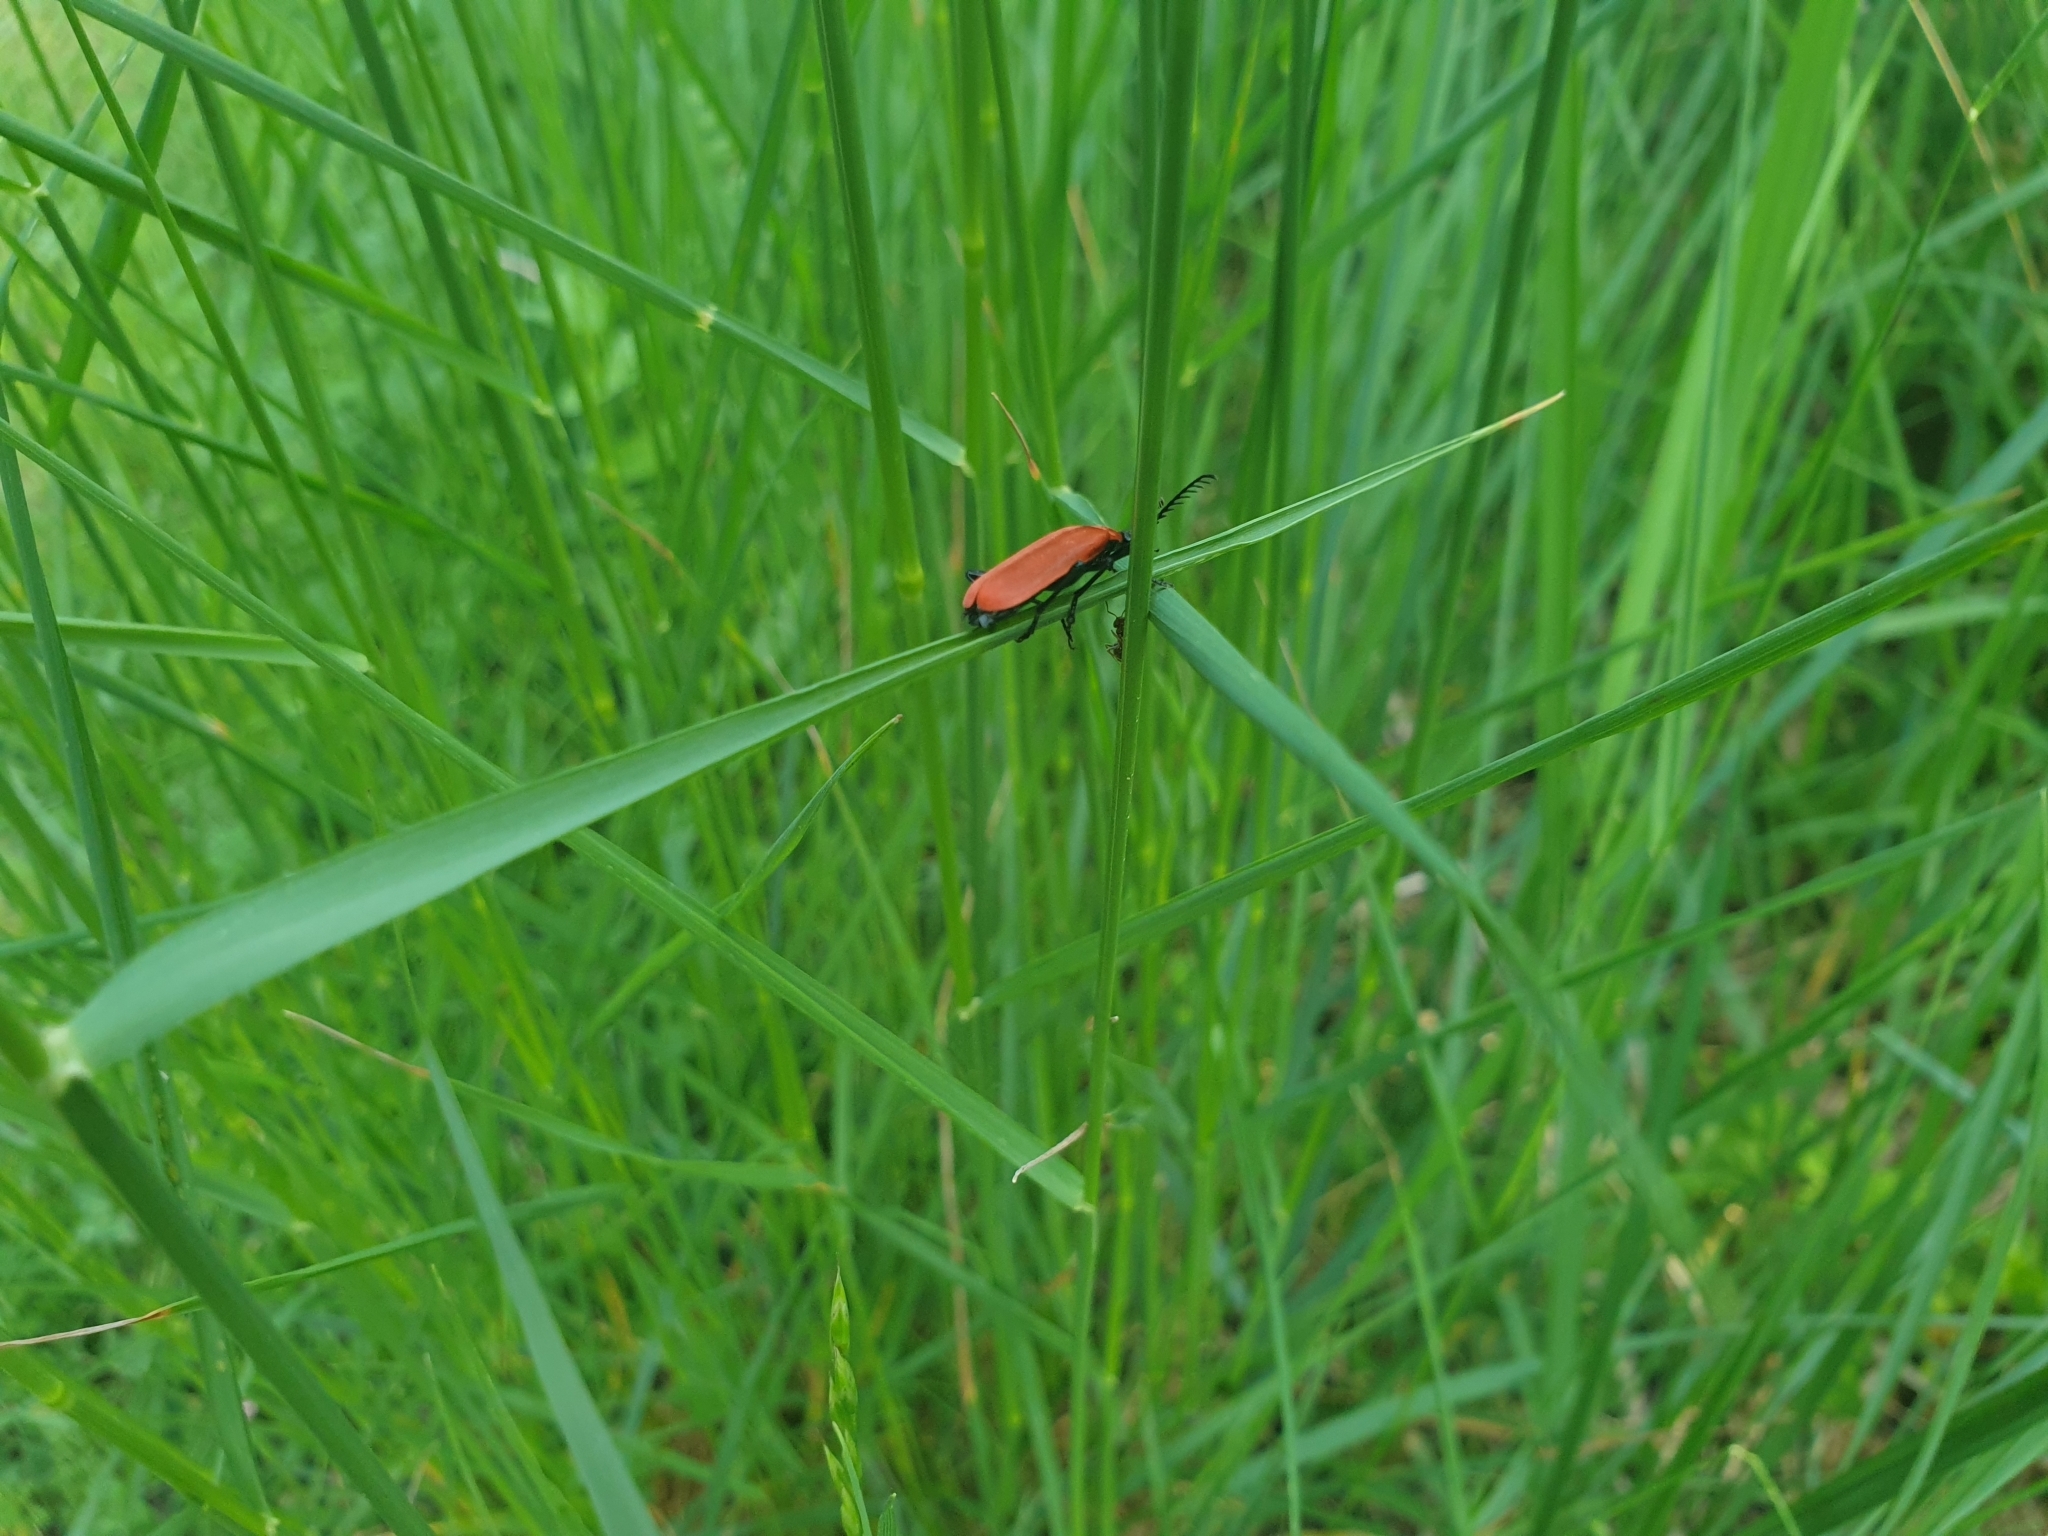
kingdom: Animalia
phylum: Arthropoda
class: Insecta
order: Coleoptera
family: Pyrochroidae
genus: Pyrochroa
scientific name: Pyrochroa coccinea
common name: Black-headed cardinal beetle
